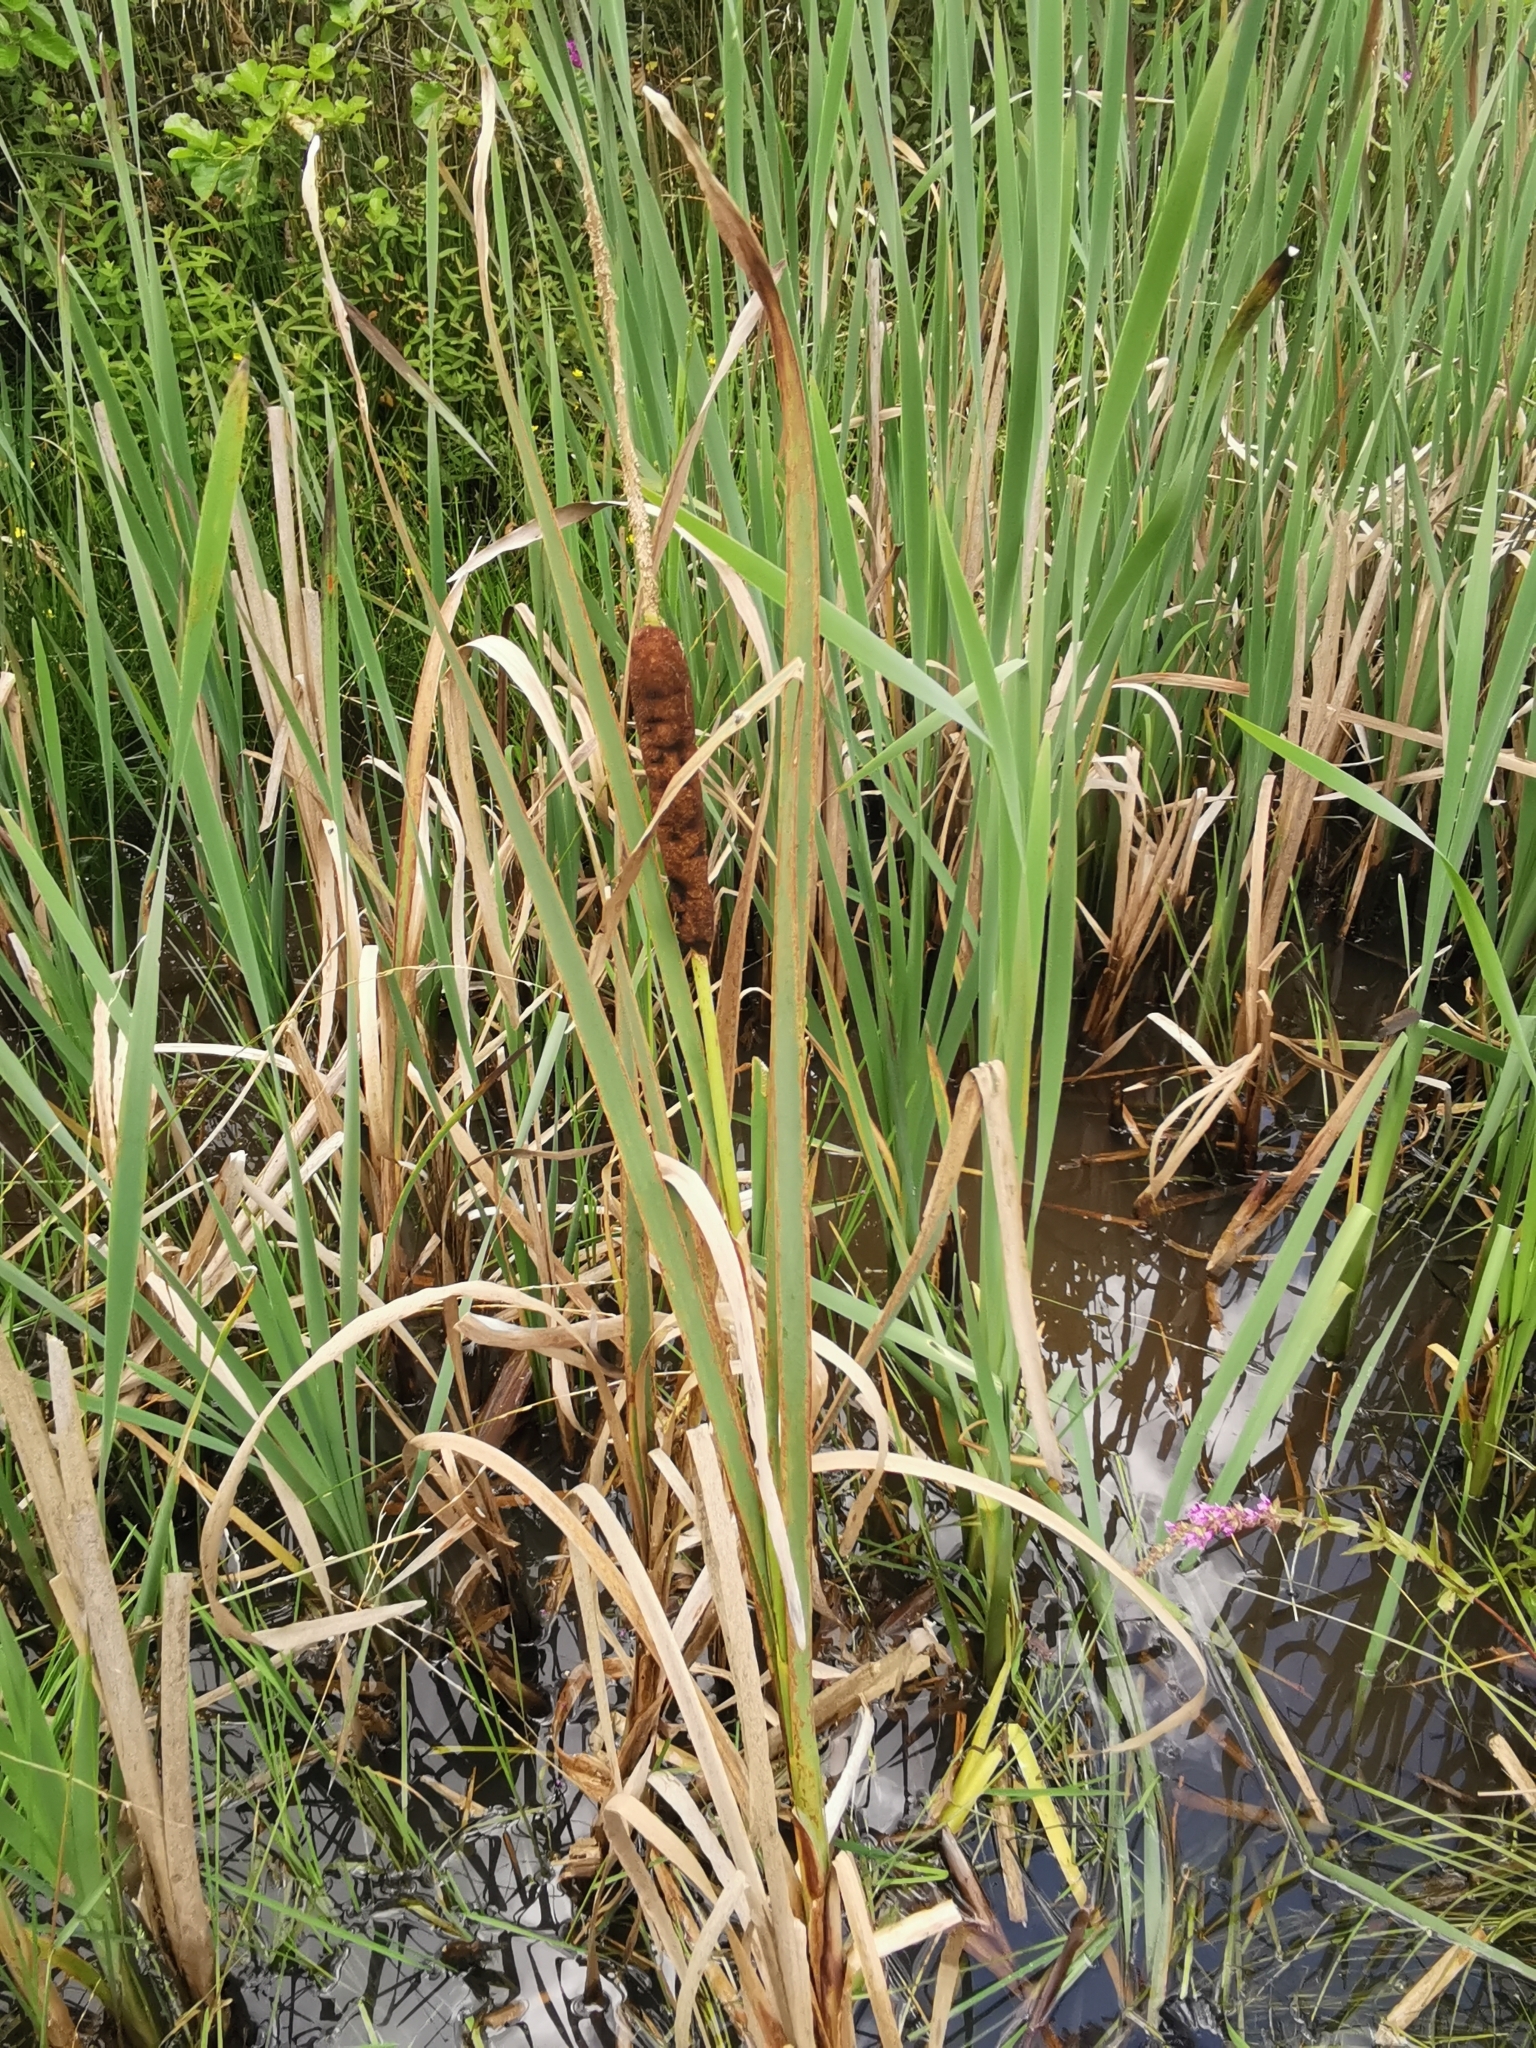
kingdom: Plantae
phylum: Tracheophyta
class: Liliopsida
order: Poales
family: Typhaceae
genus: Typha
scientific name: Typha latifolia
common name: Broadleaf cattail
